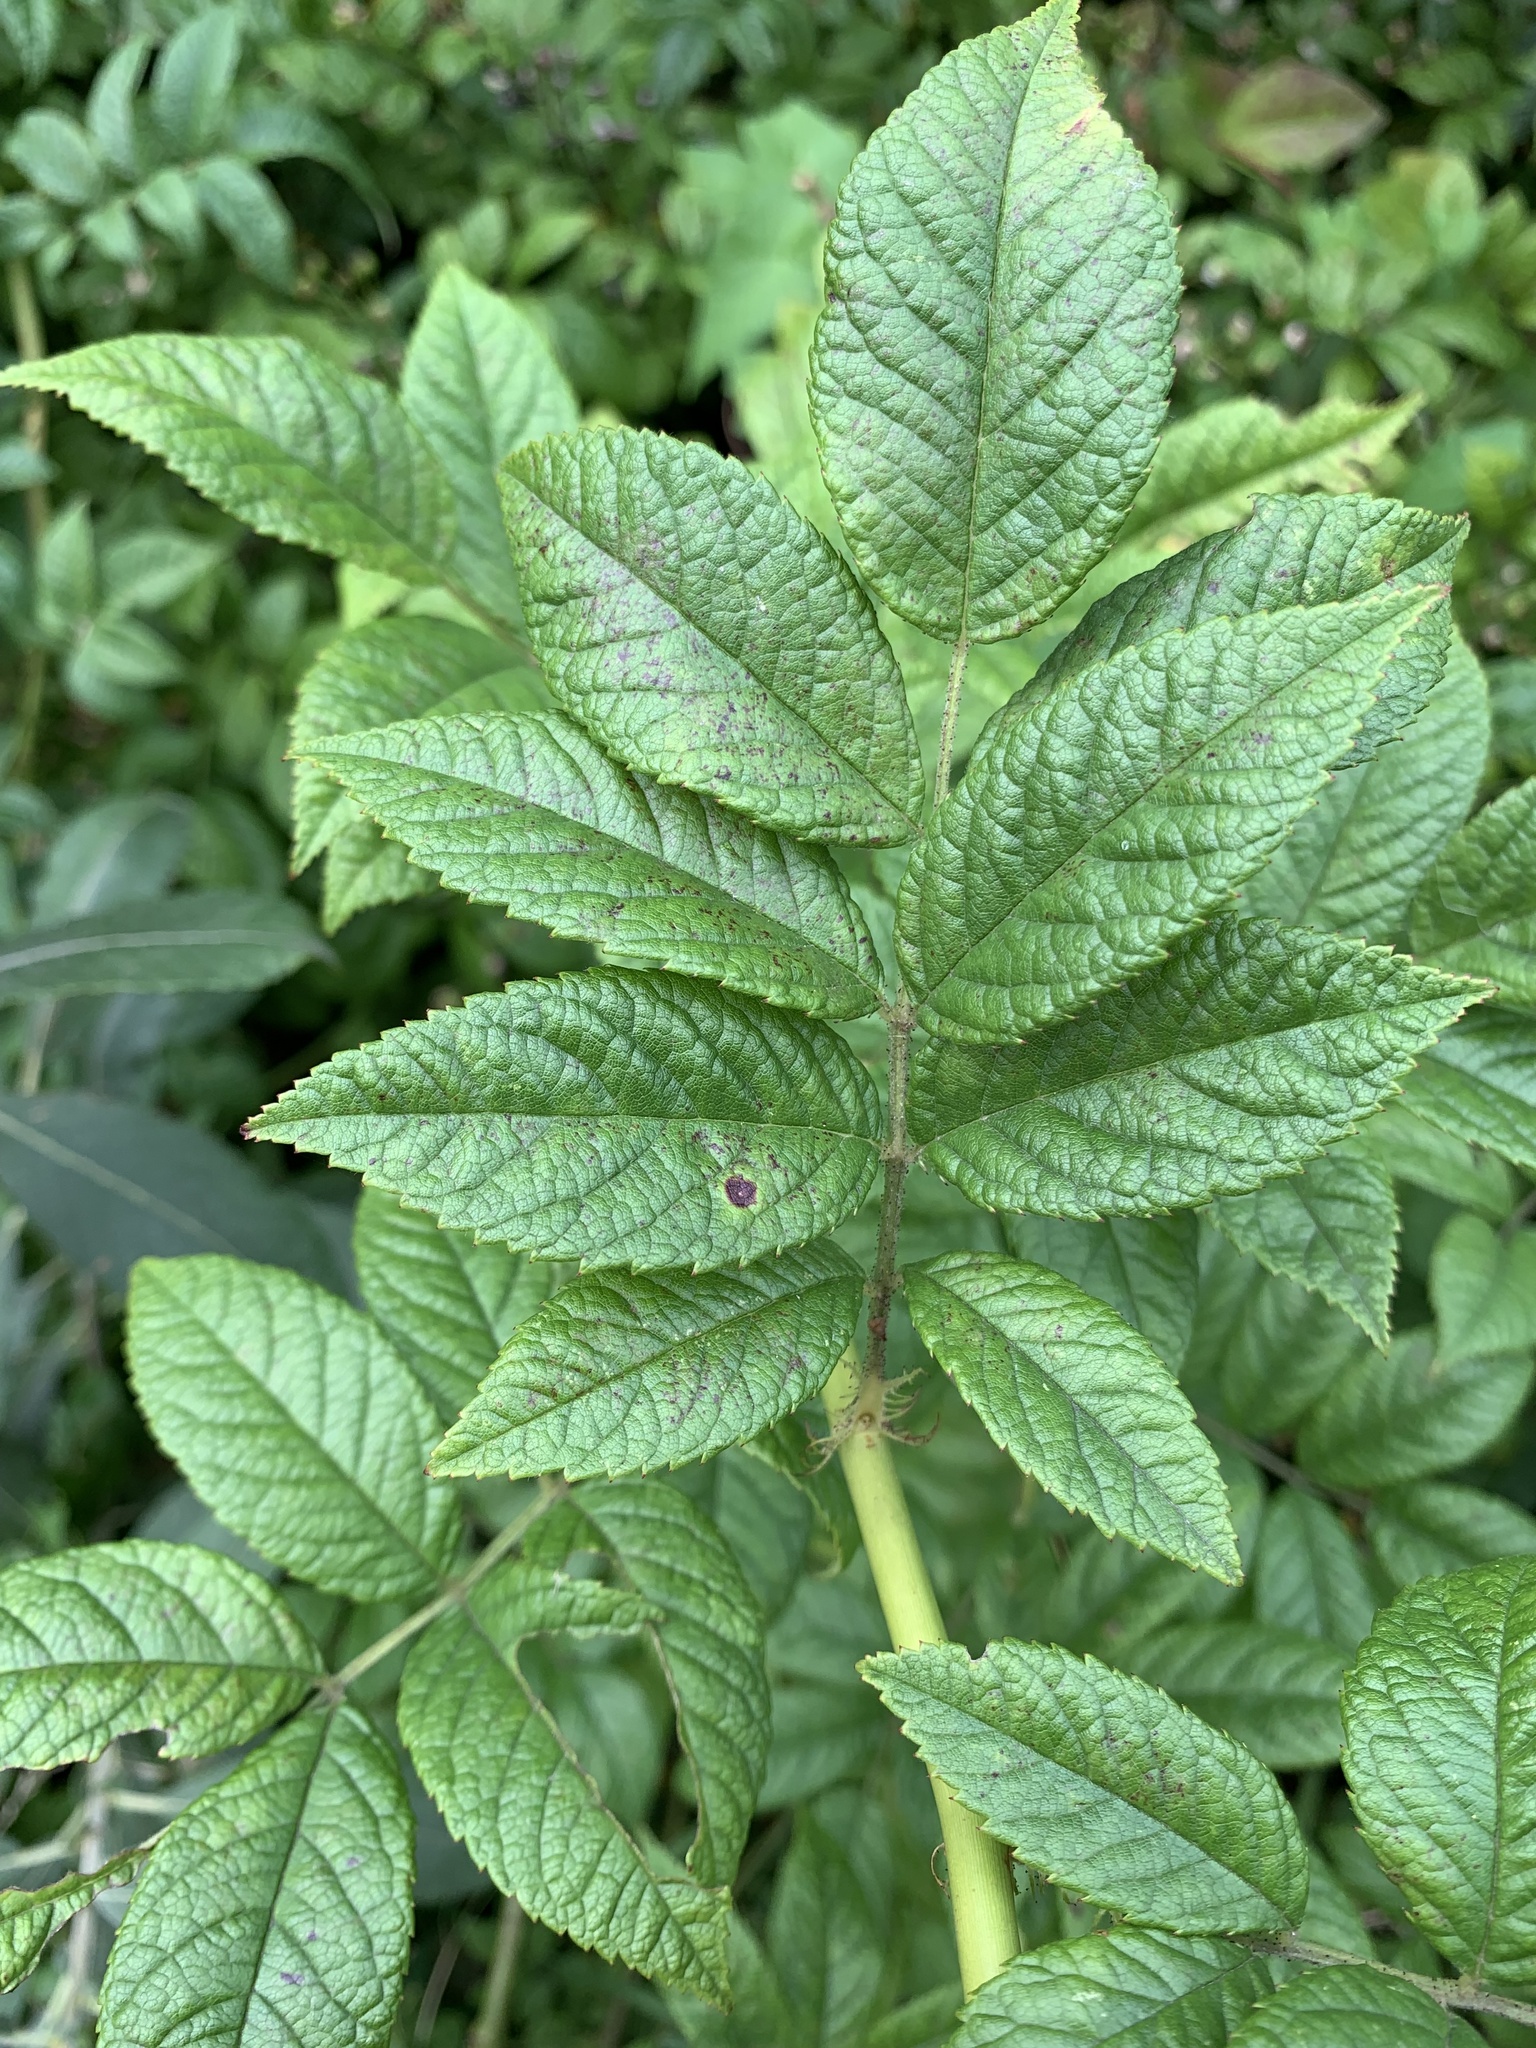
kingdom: Plantae
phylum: Tracheophyta
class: Magnoliopsida
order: Rosales
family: Rosaceae
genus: Rosa
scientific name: Rosa multiflora
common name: Multiflora rose
